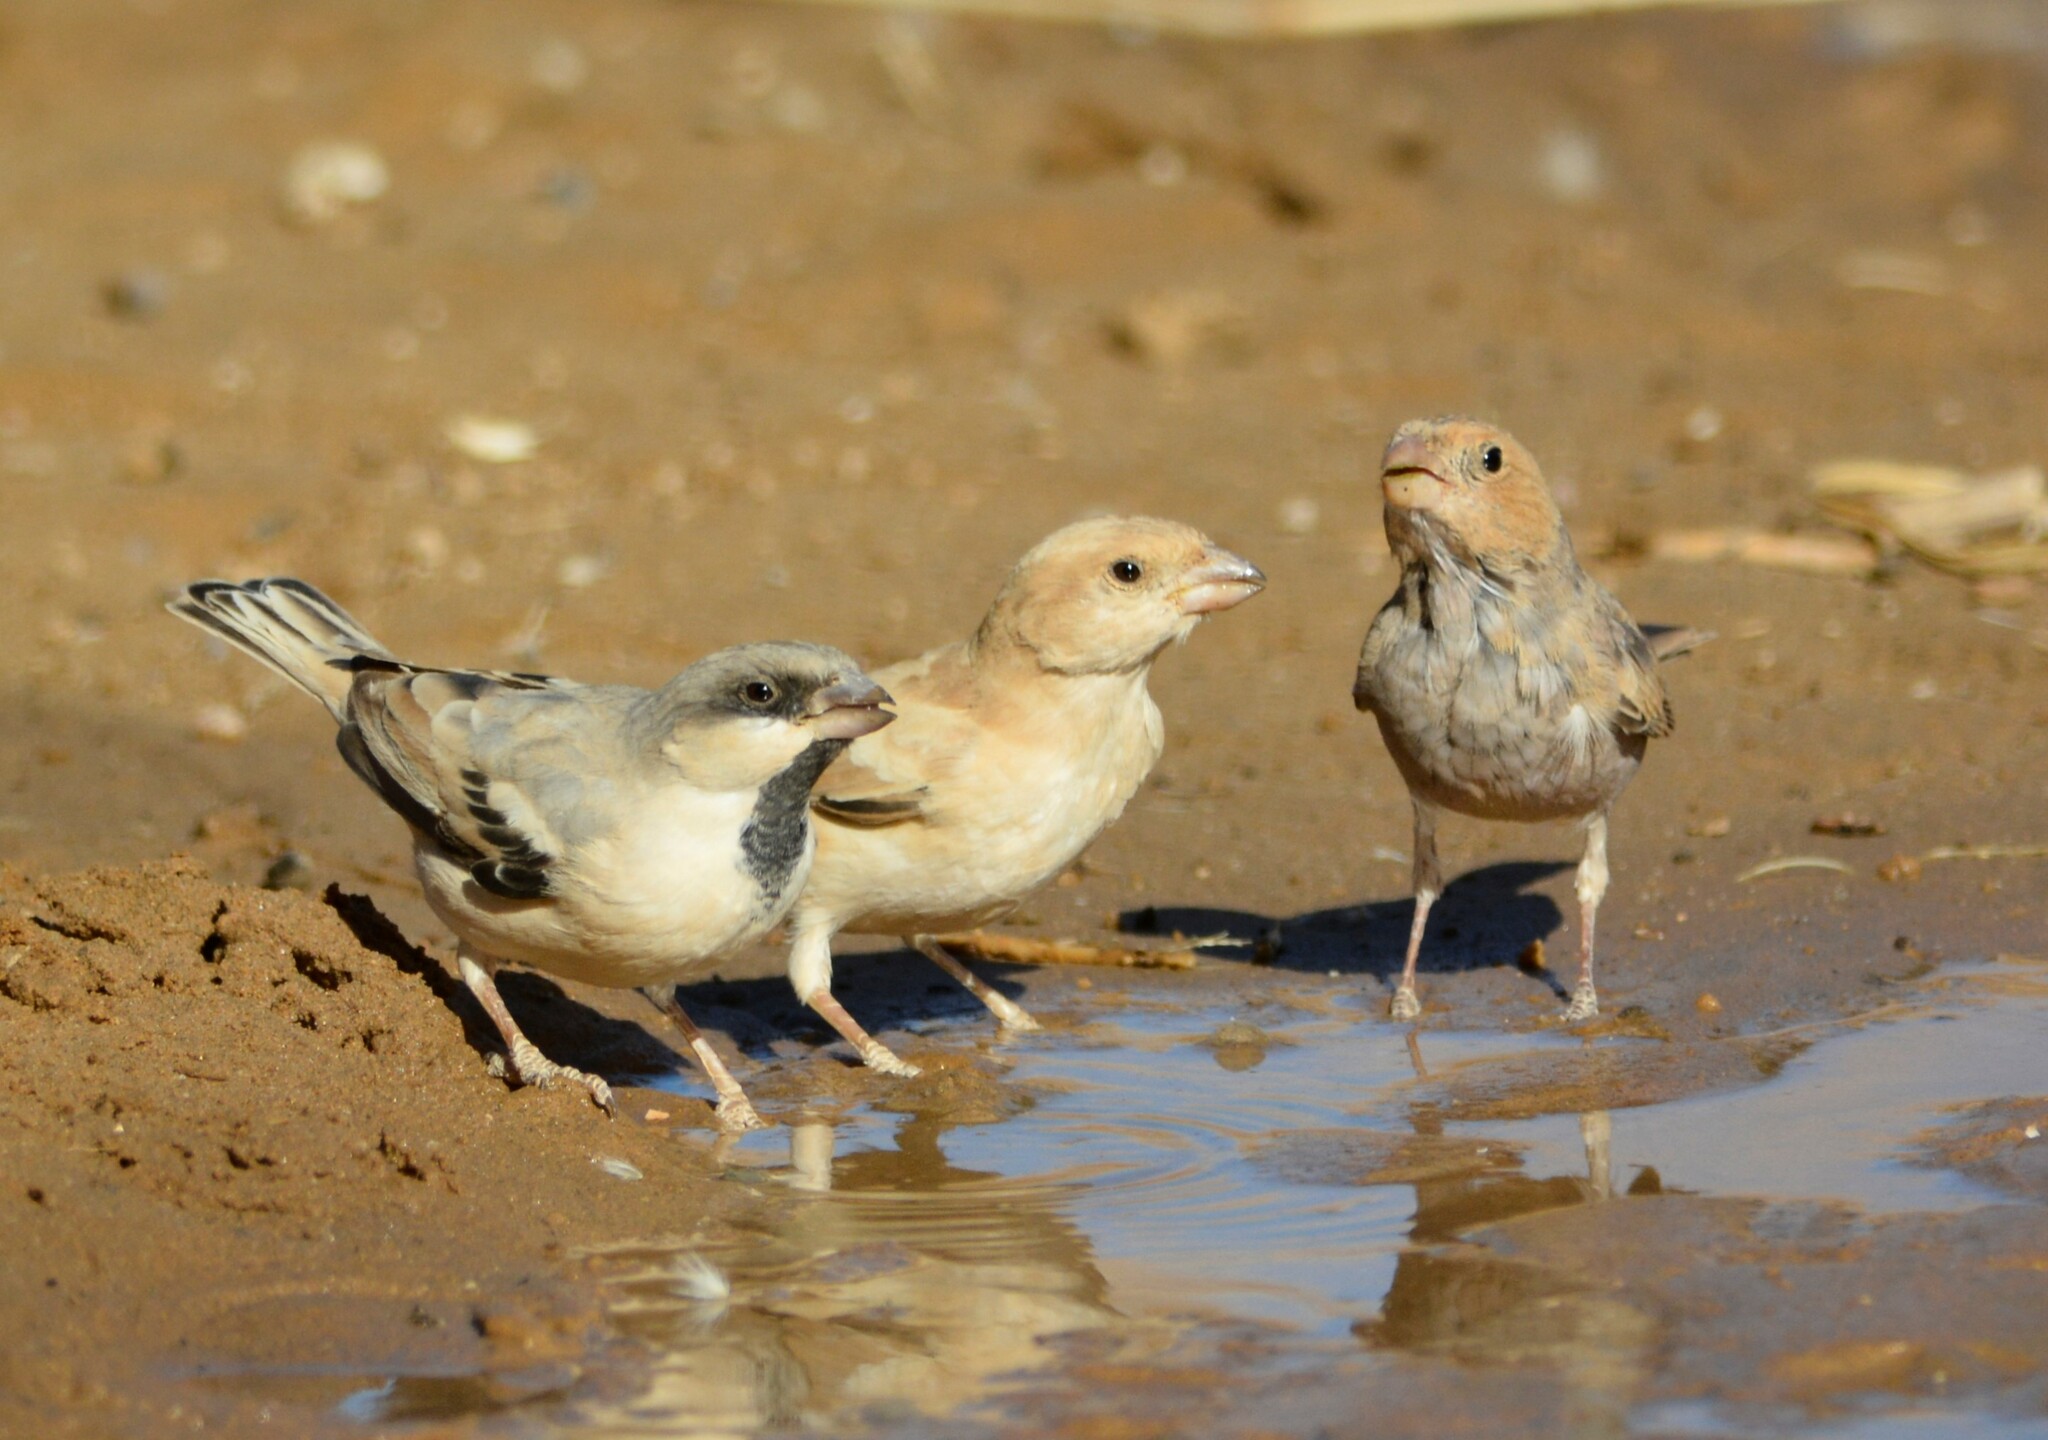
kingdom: Animalia
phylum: Chordata
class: Aves
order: Passeriformes
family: Passeridae
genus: Passer
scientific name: Passer simplex
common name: Desert sparrow
